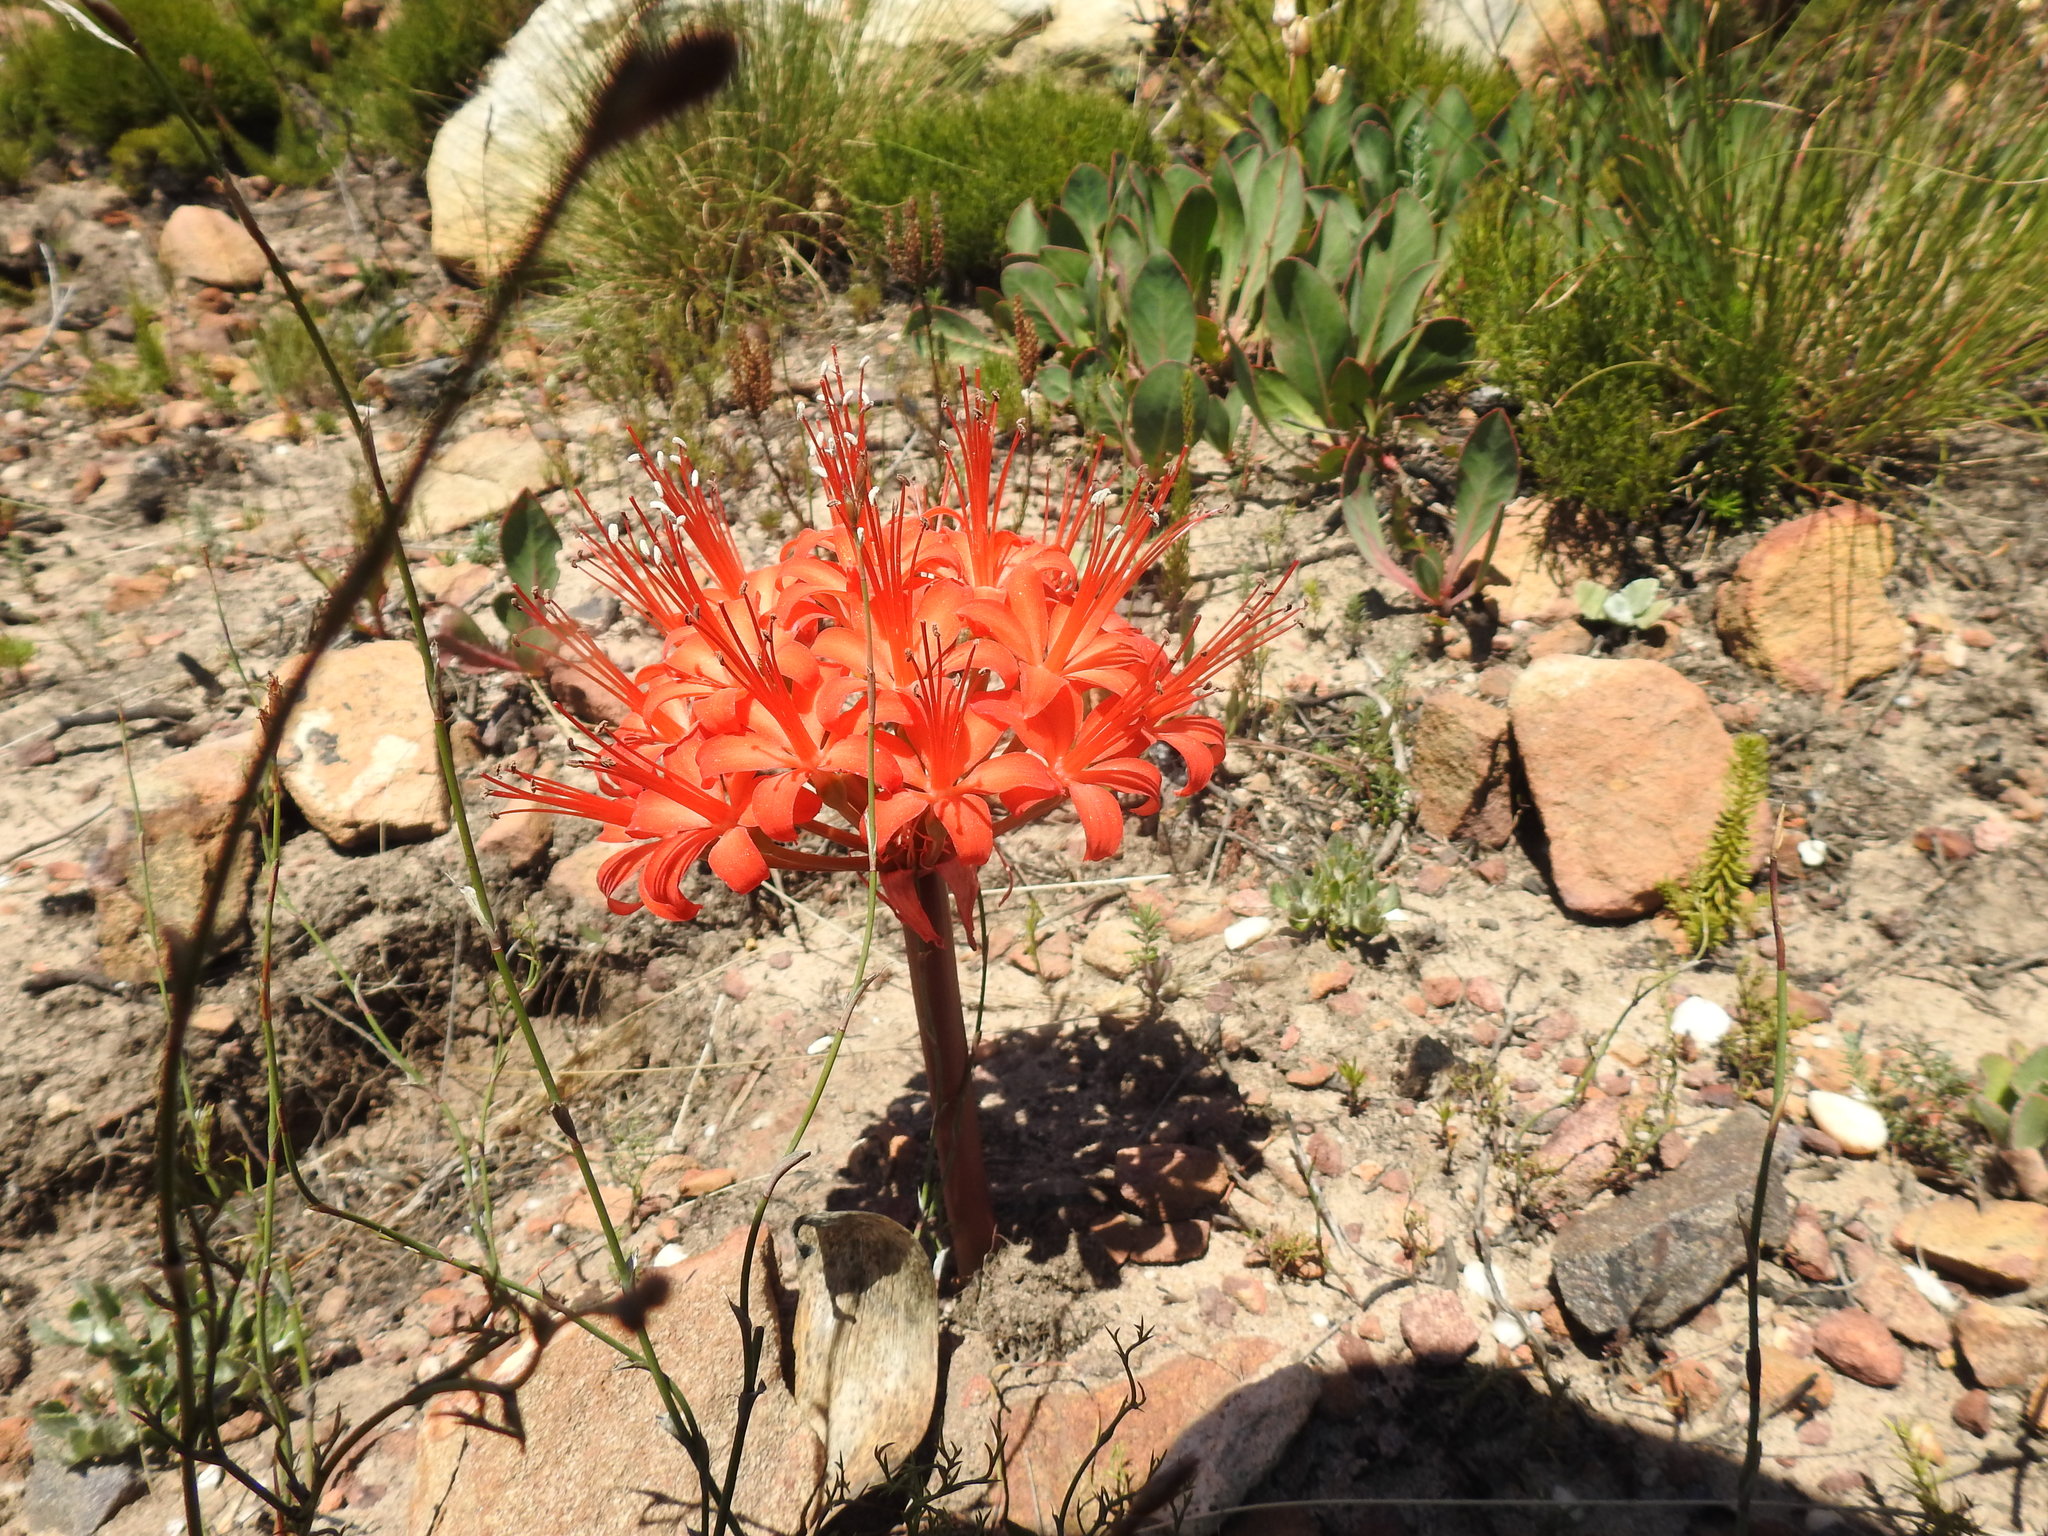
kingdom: Plantae
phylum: Tracheophyta
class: Liliopsida
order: Asparagales
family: Amaryllidaceae
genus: Brunsvigia
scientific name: Brunsvigia marginata
